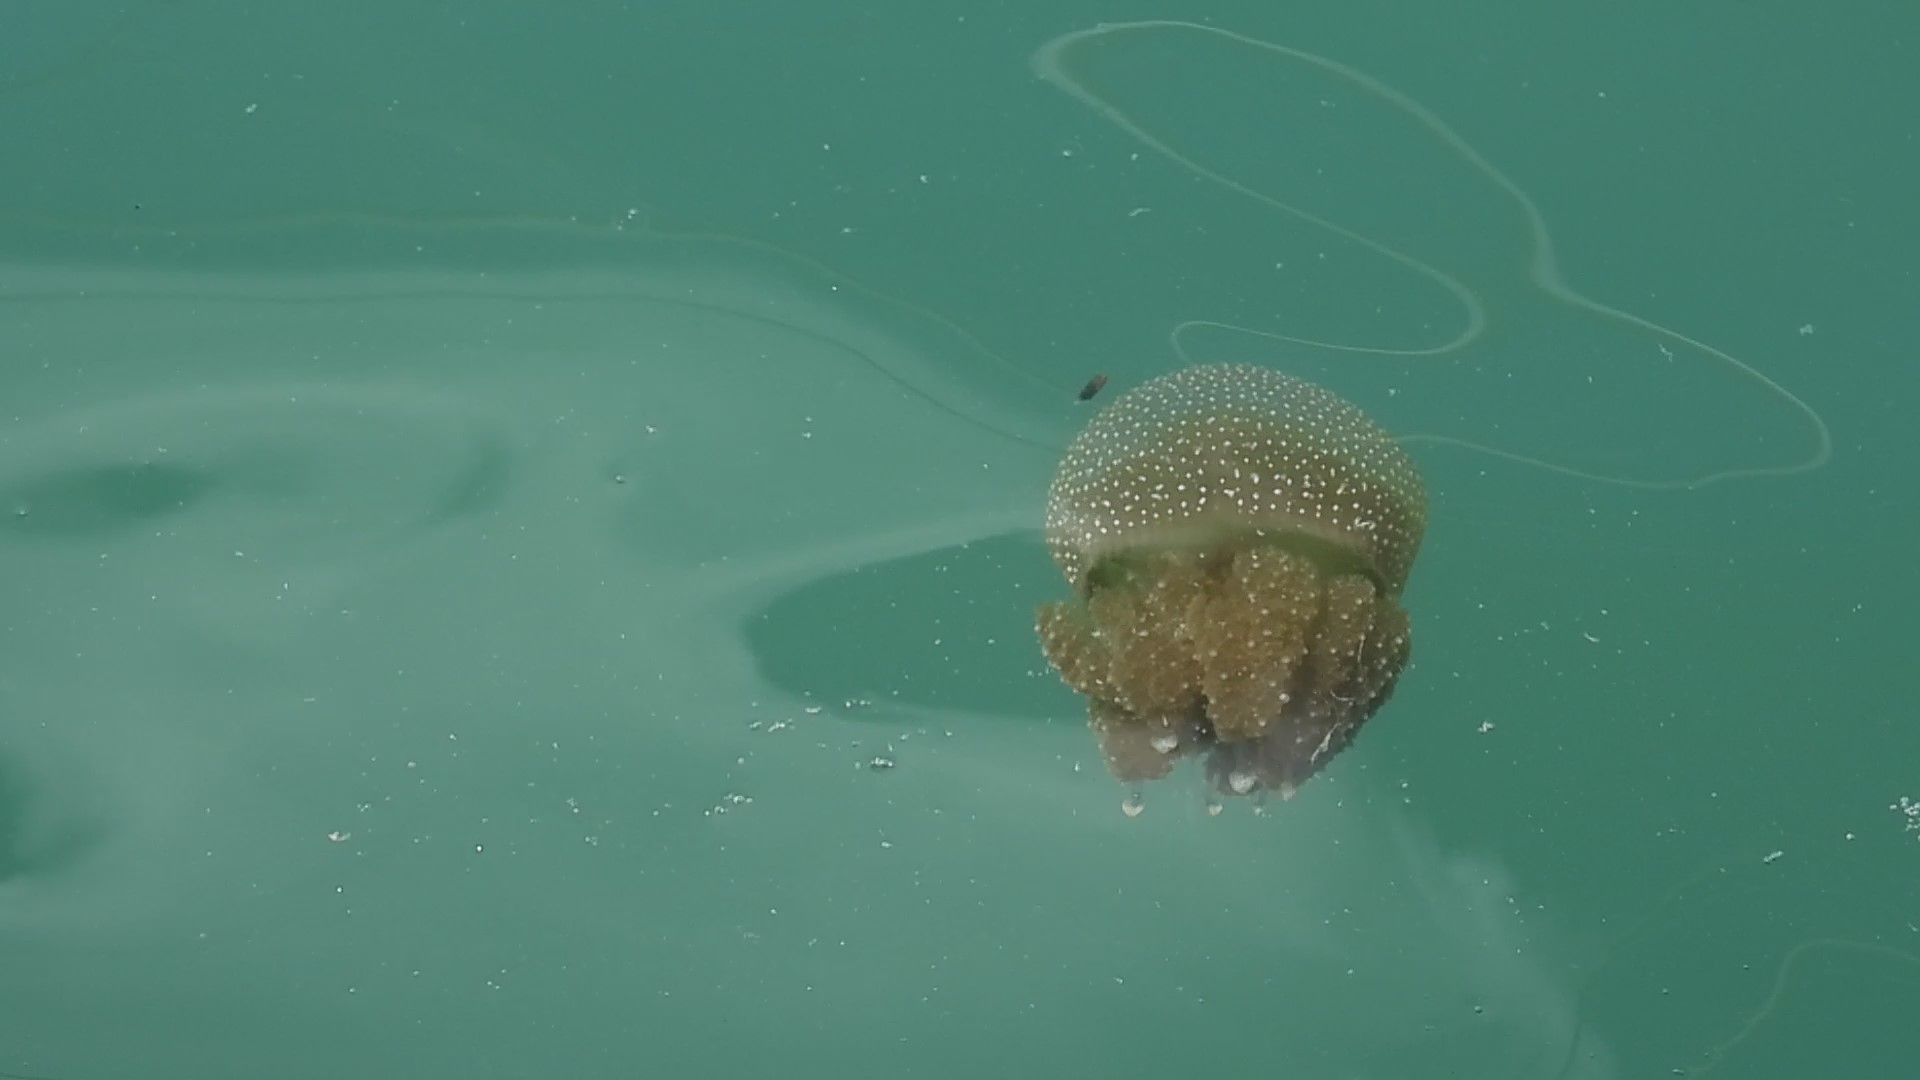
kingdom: Animalia
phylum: Cnidaria
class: Scyphozoa
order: Rhizostomeae
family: Mastigiidae
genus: Phyllorhiza
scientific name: Phyllorhiza punctata
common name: Australian spotted jellyfish
